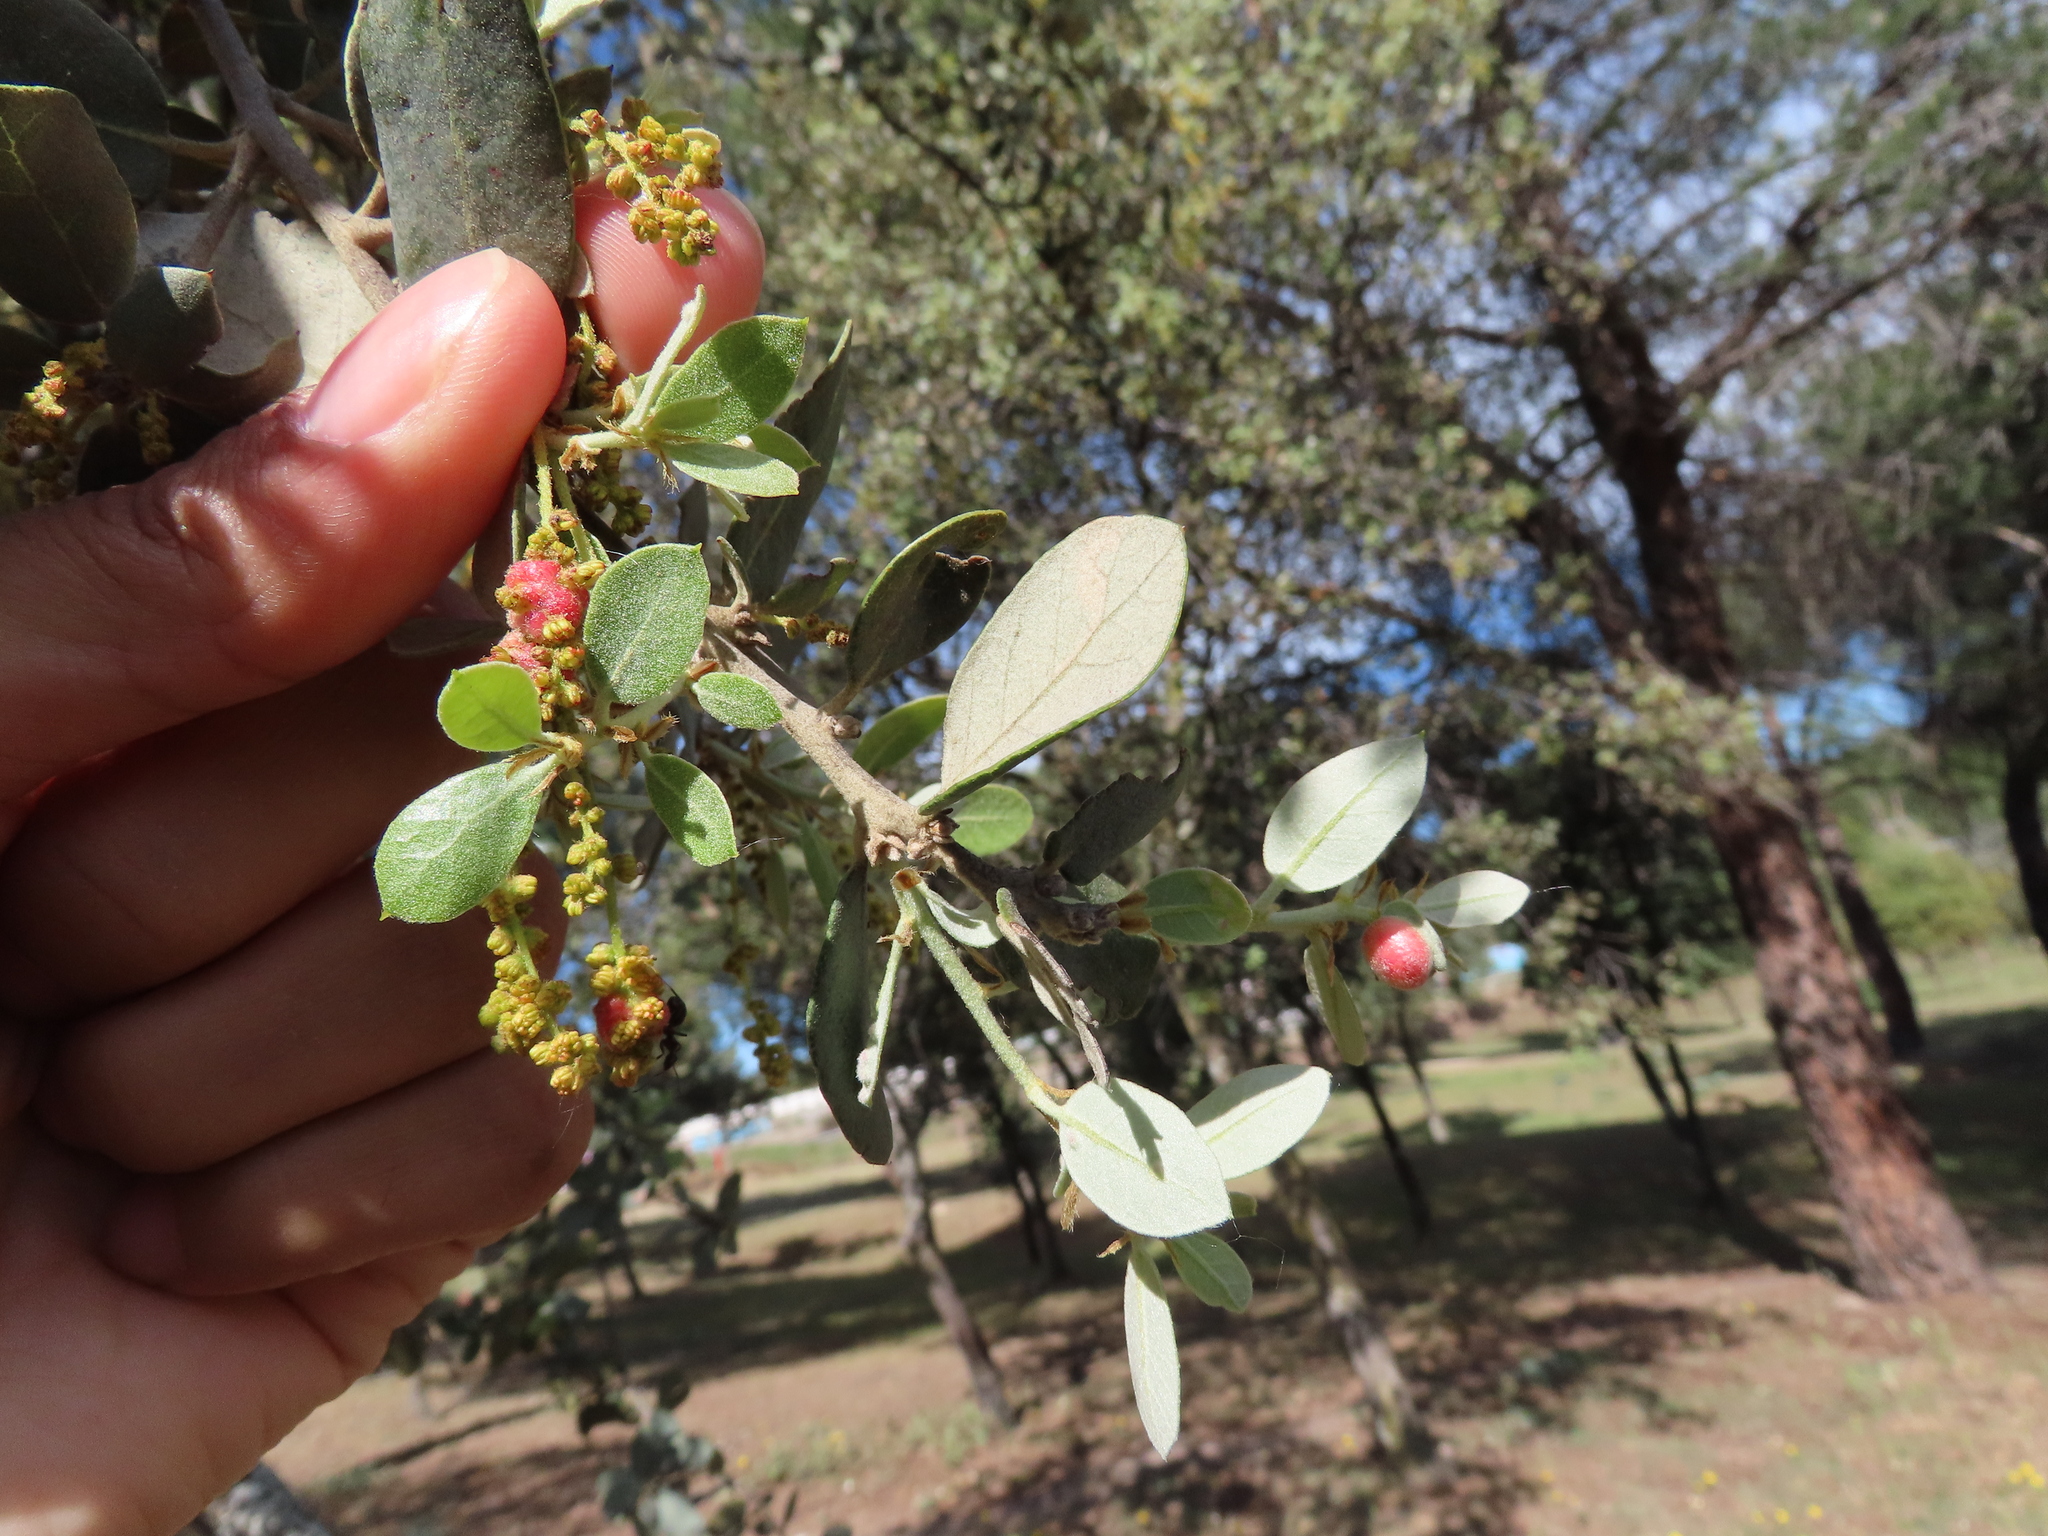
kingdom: Animalia
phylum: Arthropoda
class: Insecta
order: Hymenoptera
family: Cynipidae
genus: Plagiotrochus
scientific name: Plagiotrochus quercusilicis
